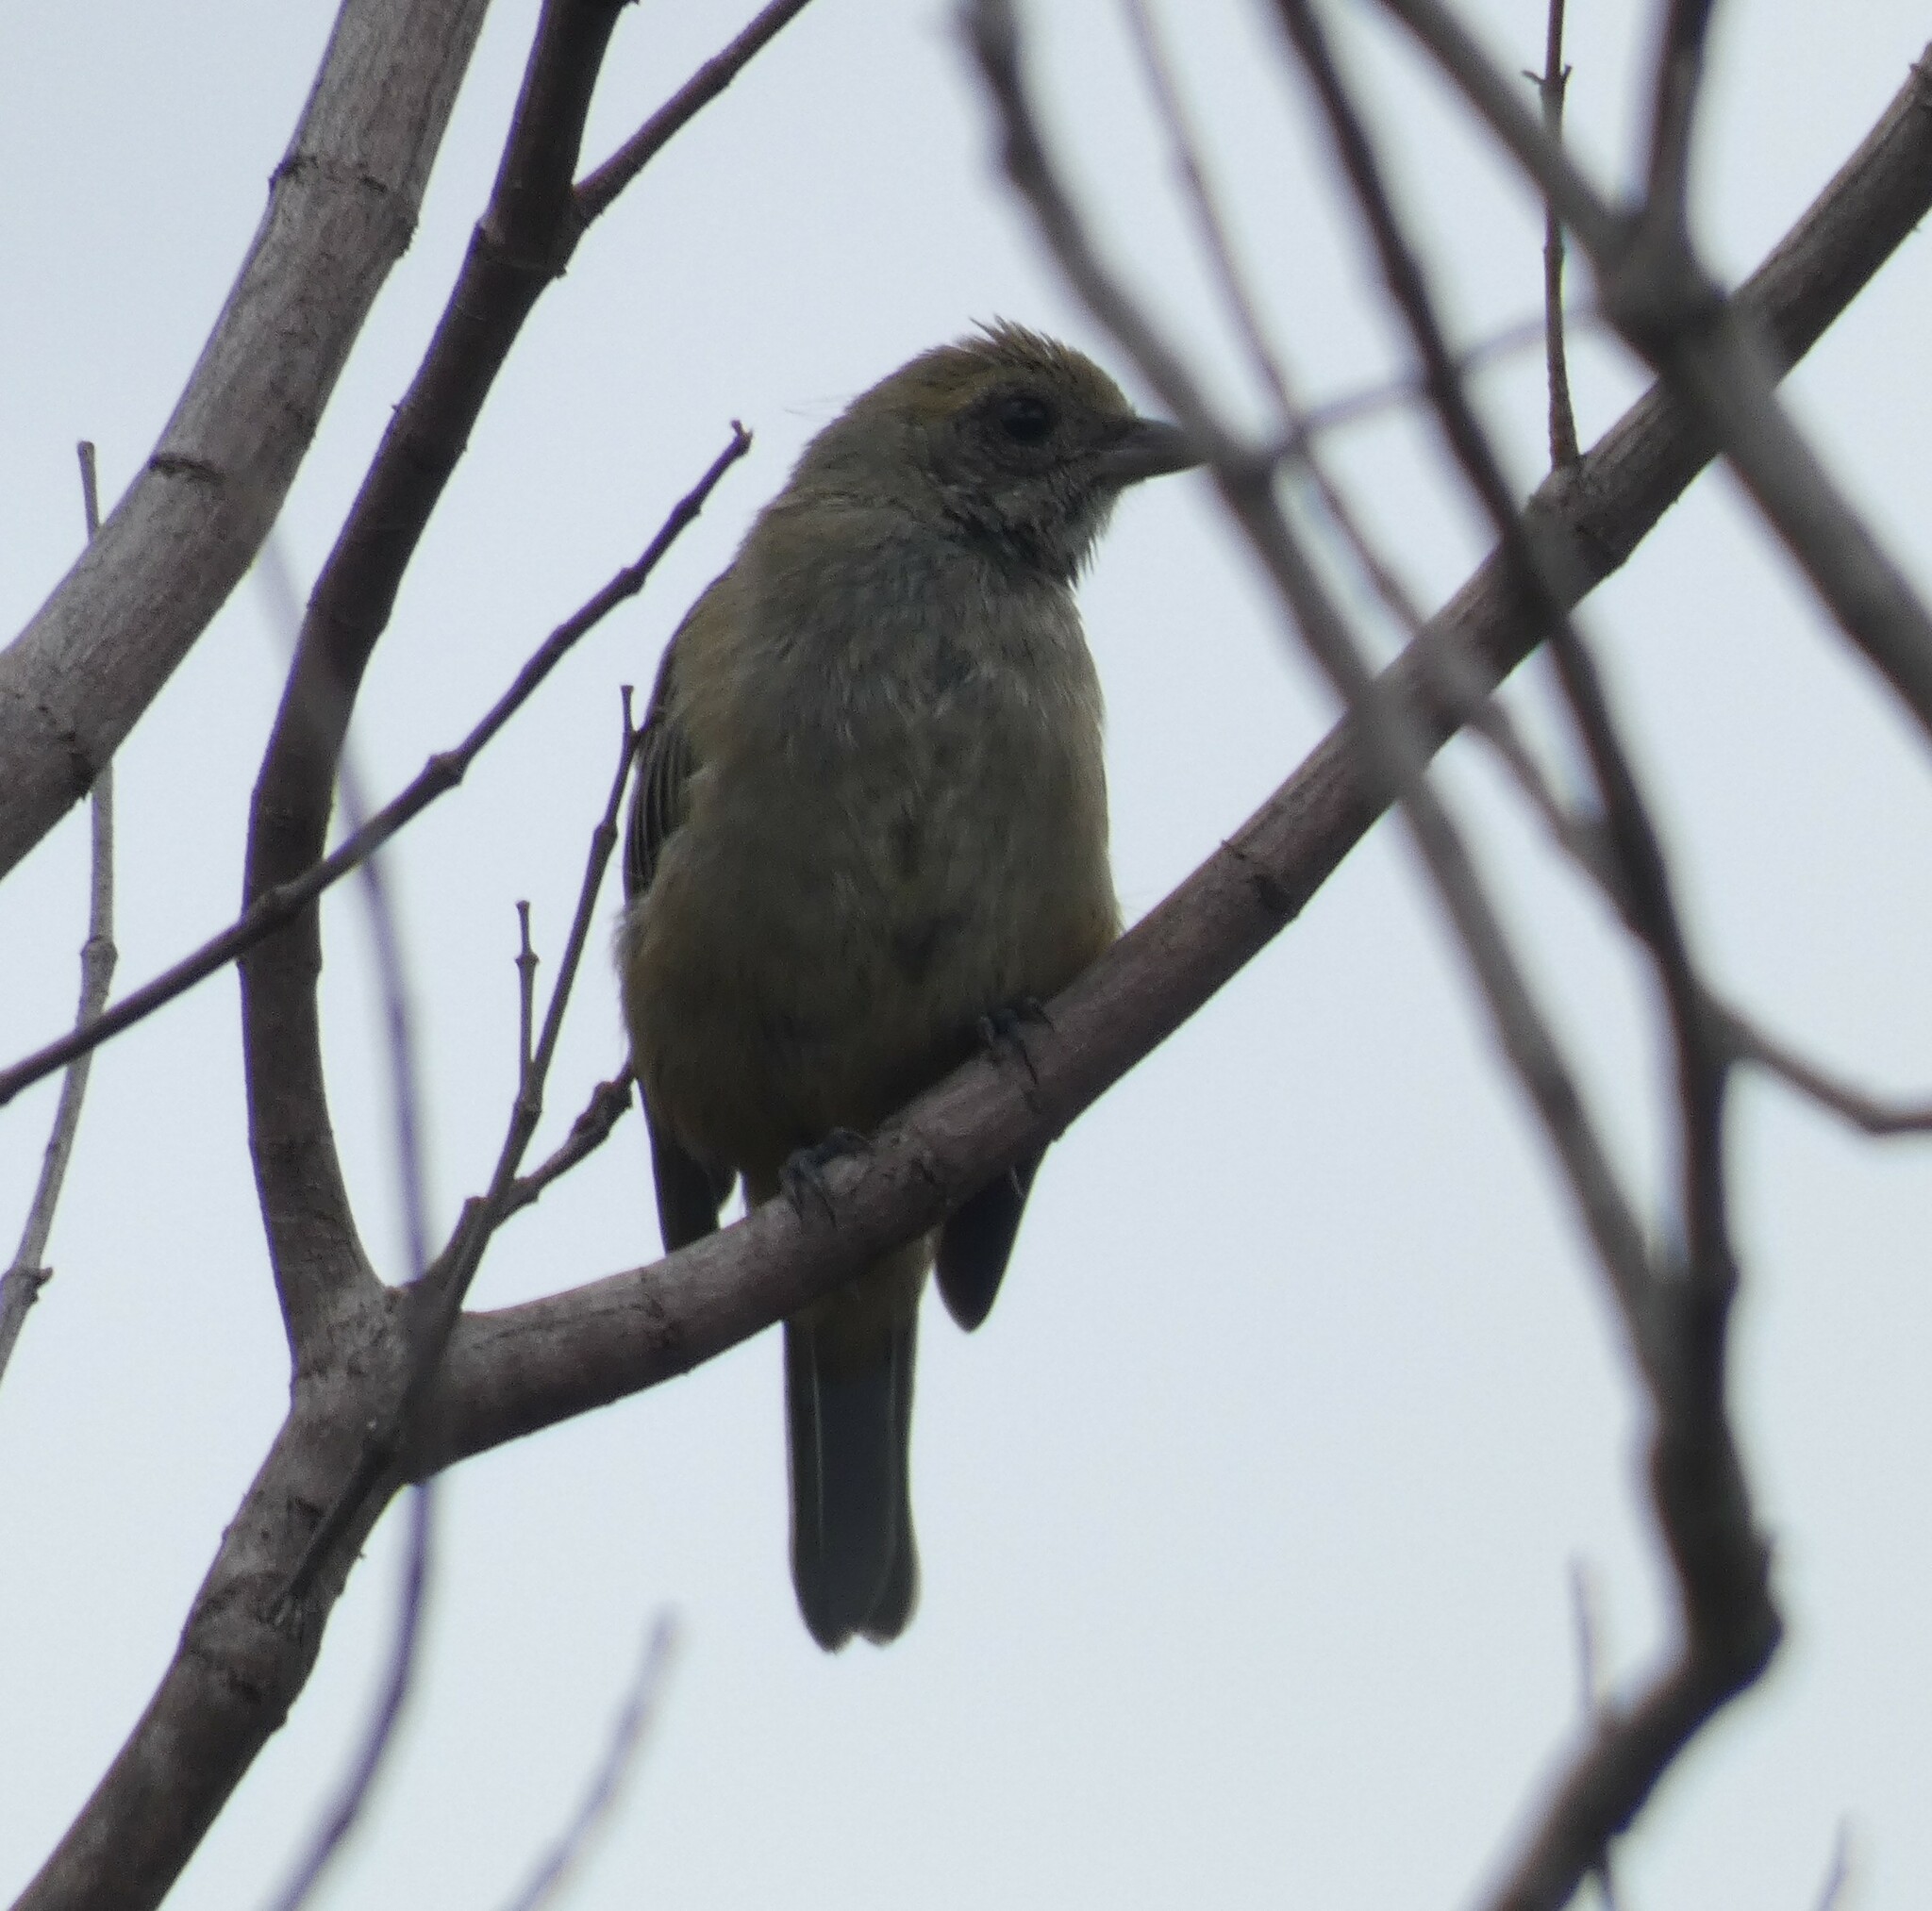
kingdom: Animalia
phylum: Chordata
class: Aves
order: Passeriformes
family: Thraupidae
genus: Stilpnia
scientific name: Stilpnia cayana
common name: Burnished-buff tanager
